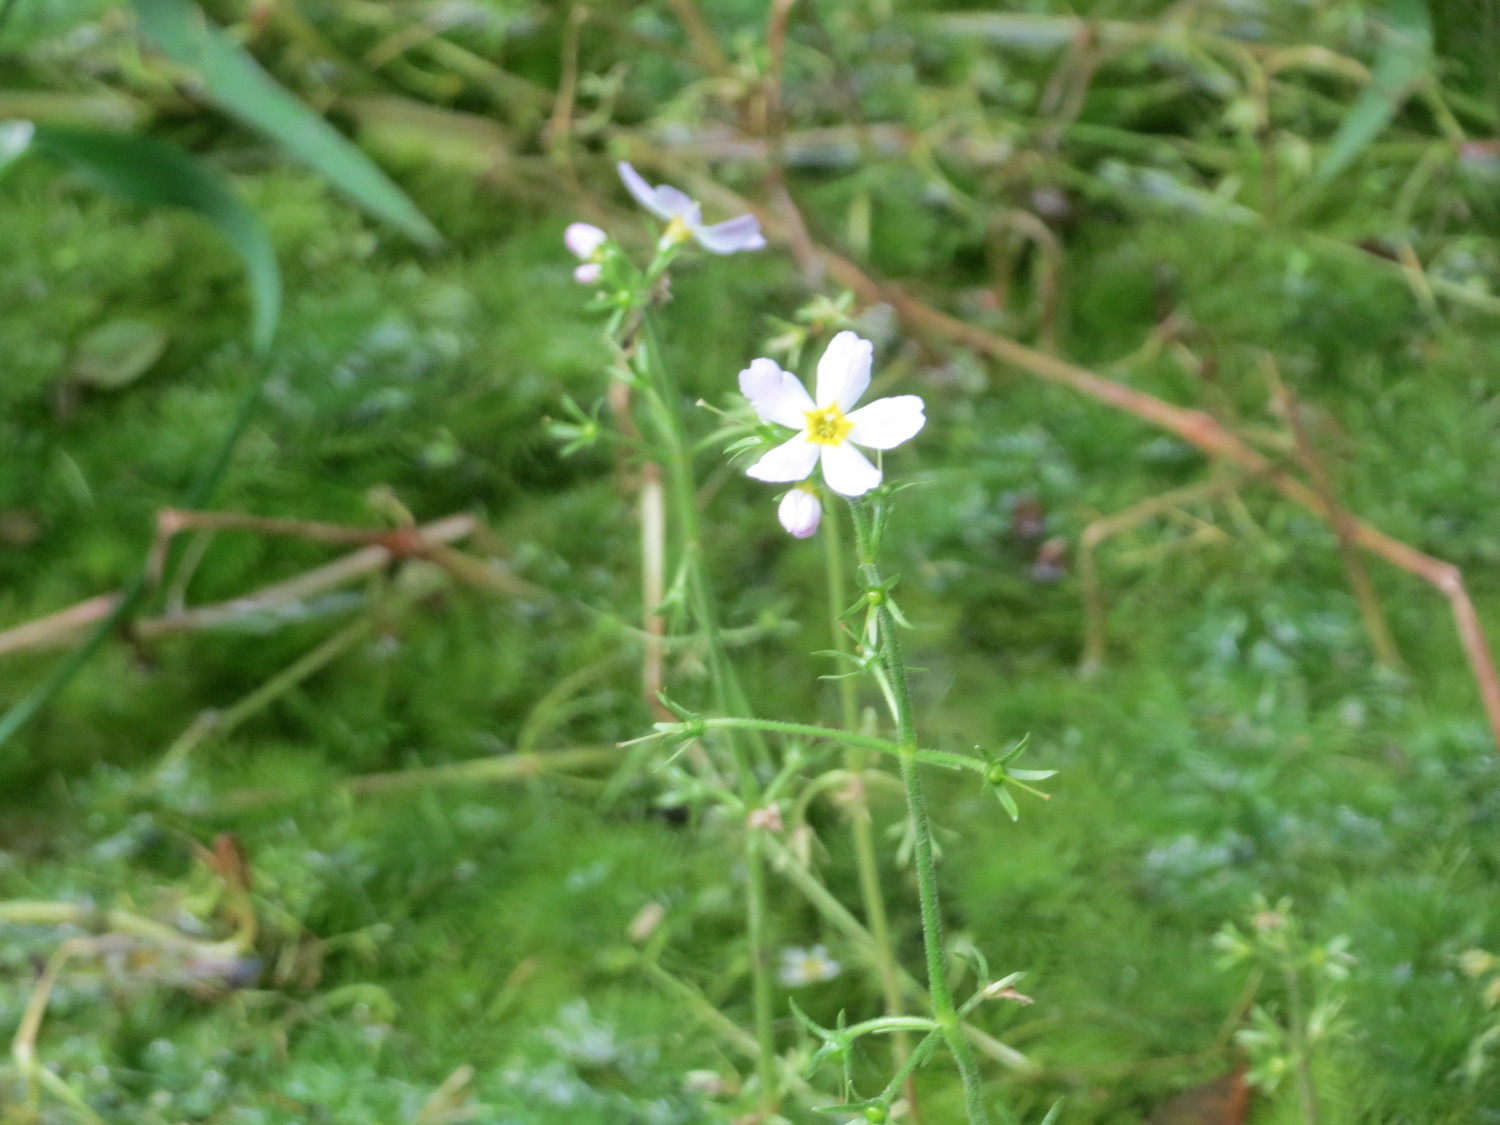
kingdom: Plantae
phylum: Tracheophyta
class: Magnoliopsida
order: Ericales
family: Primulaceae
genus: Hottonia
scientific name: Hottonia palustris
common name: Water-violet
